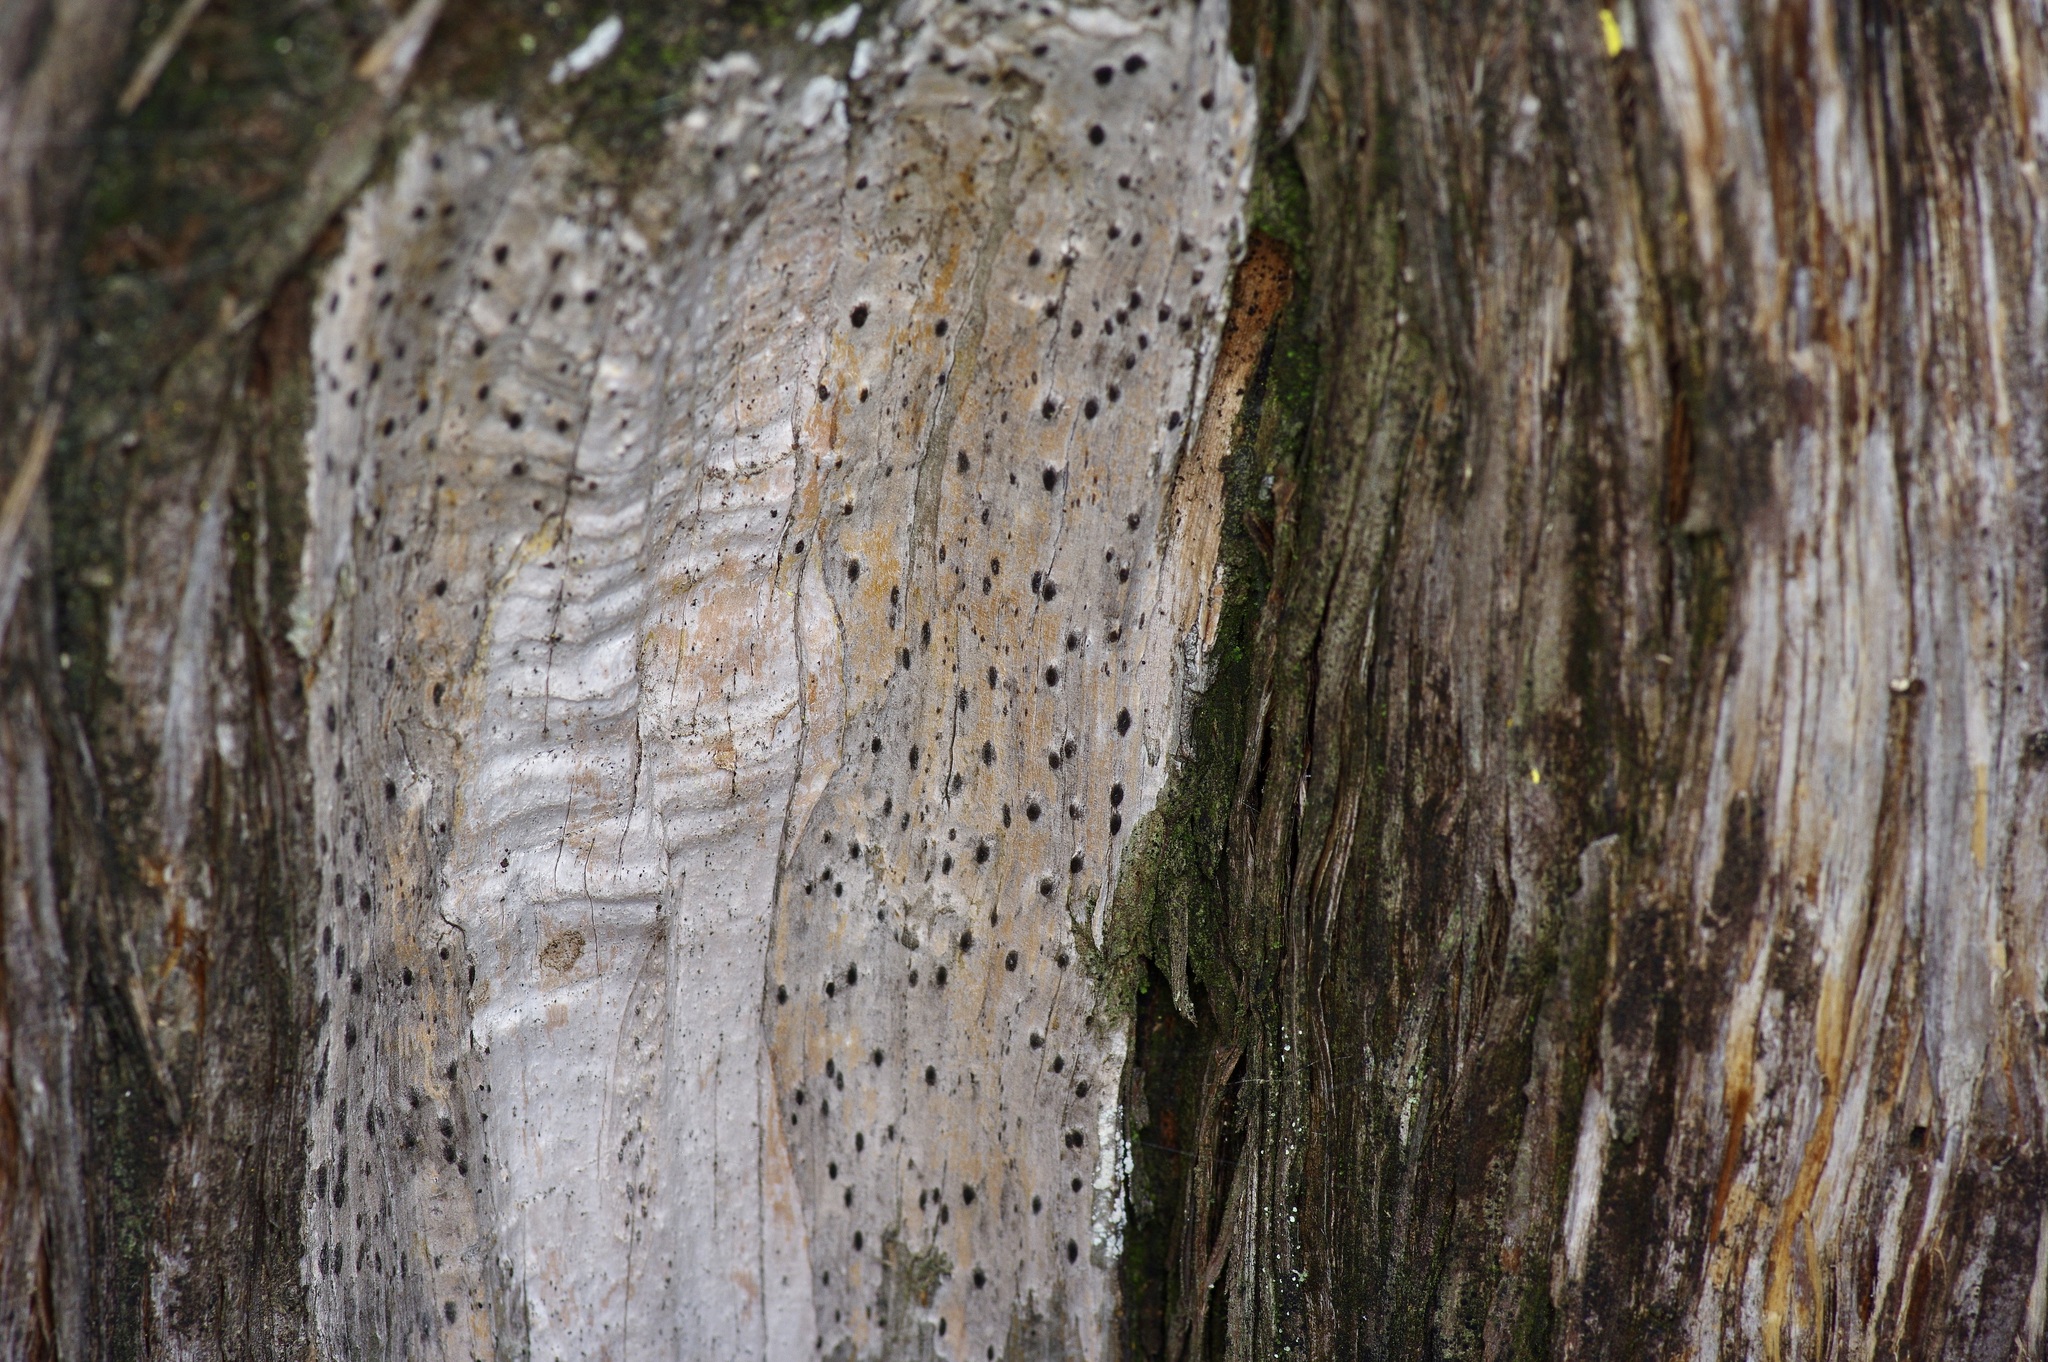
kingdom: Fungi
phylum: Ascomycota
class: Lecanoromycetes
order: Ostropales
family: Stictidaceae
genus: Robergea
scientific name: Robergea
